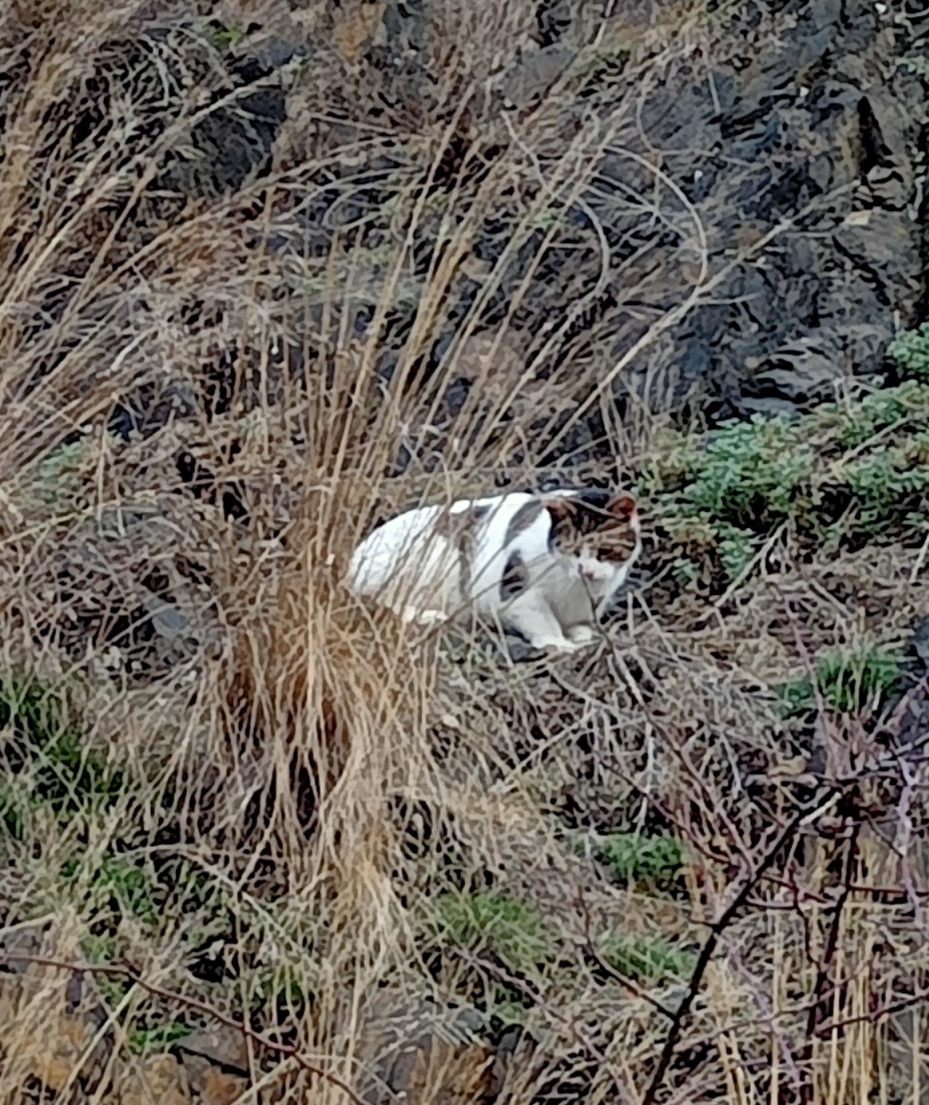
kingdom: Animalia
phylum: Chordata
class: Mammalia
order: Carnivora
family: Felidae
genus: Felis
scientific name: Felis catus
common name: Domestic cat
